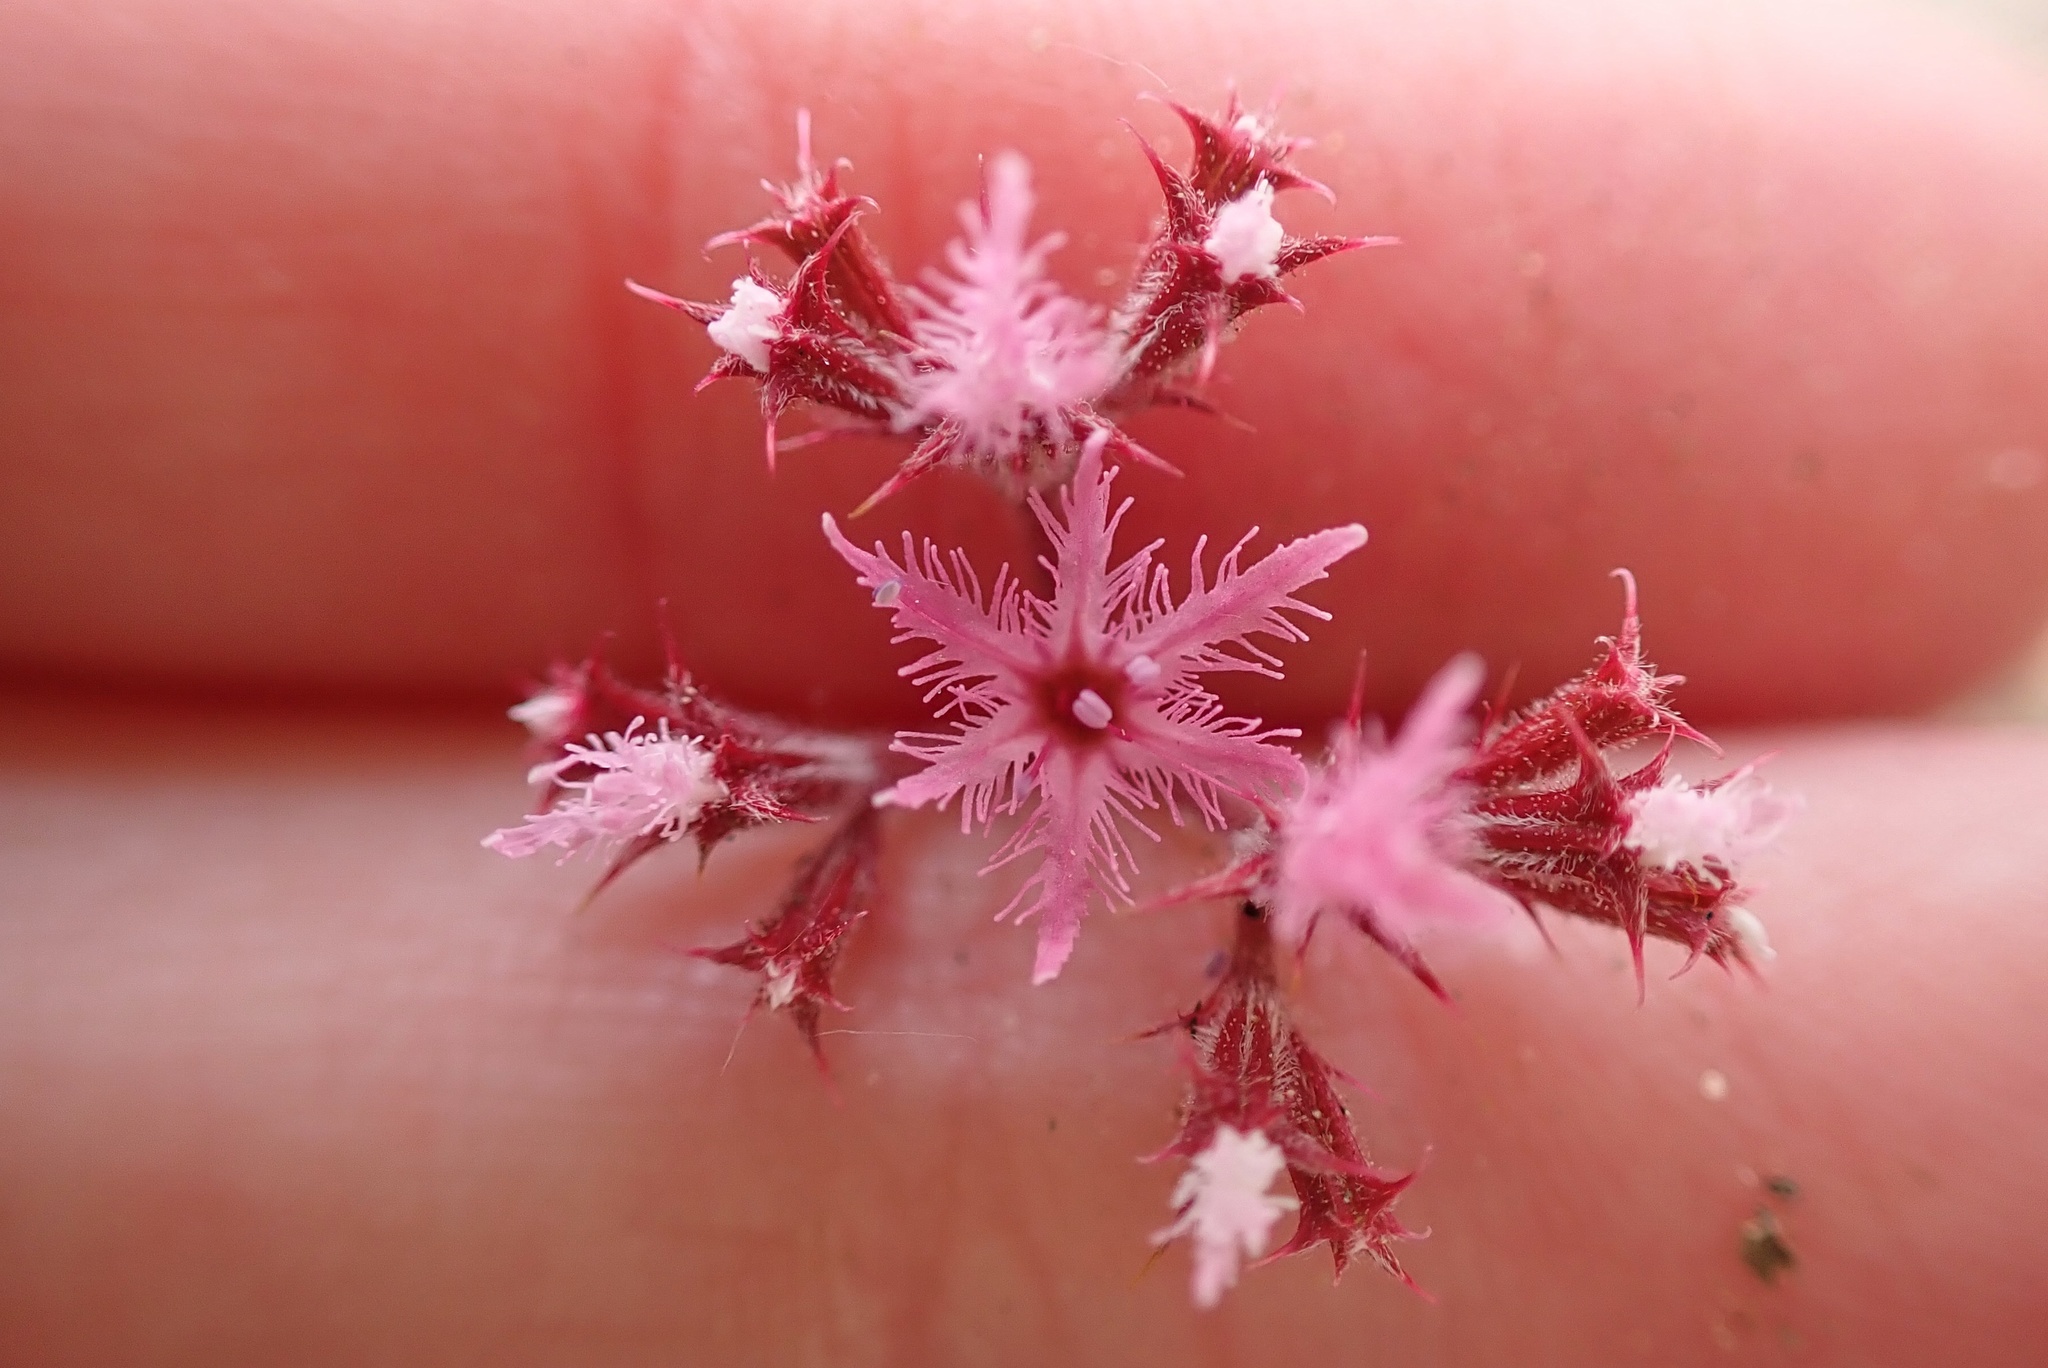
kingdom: Plantae
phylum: Tracheophyta
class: Magnoliopsida
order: Caryophyllales
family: Polygonaceae
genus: Chorizanthe
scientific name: Chorizanthe fimbriata
